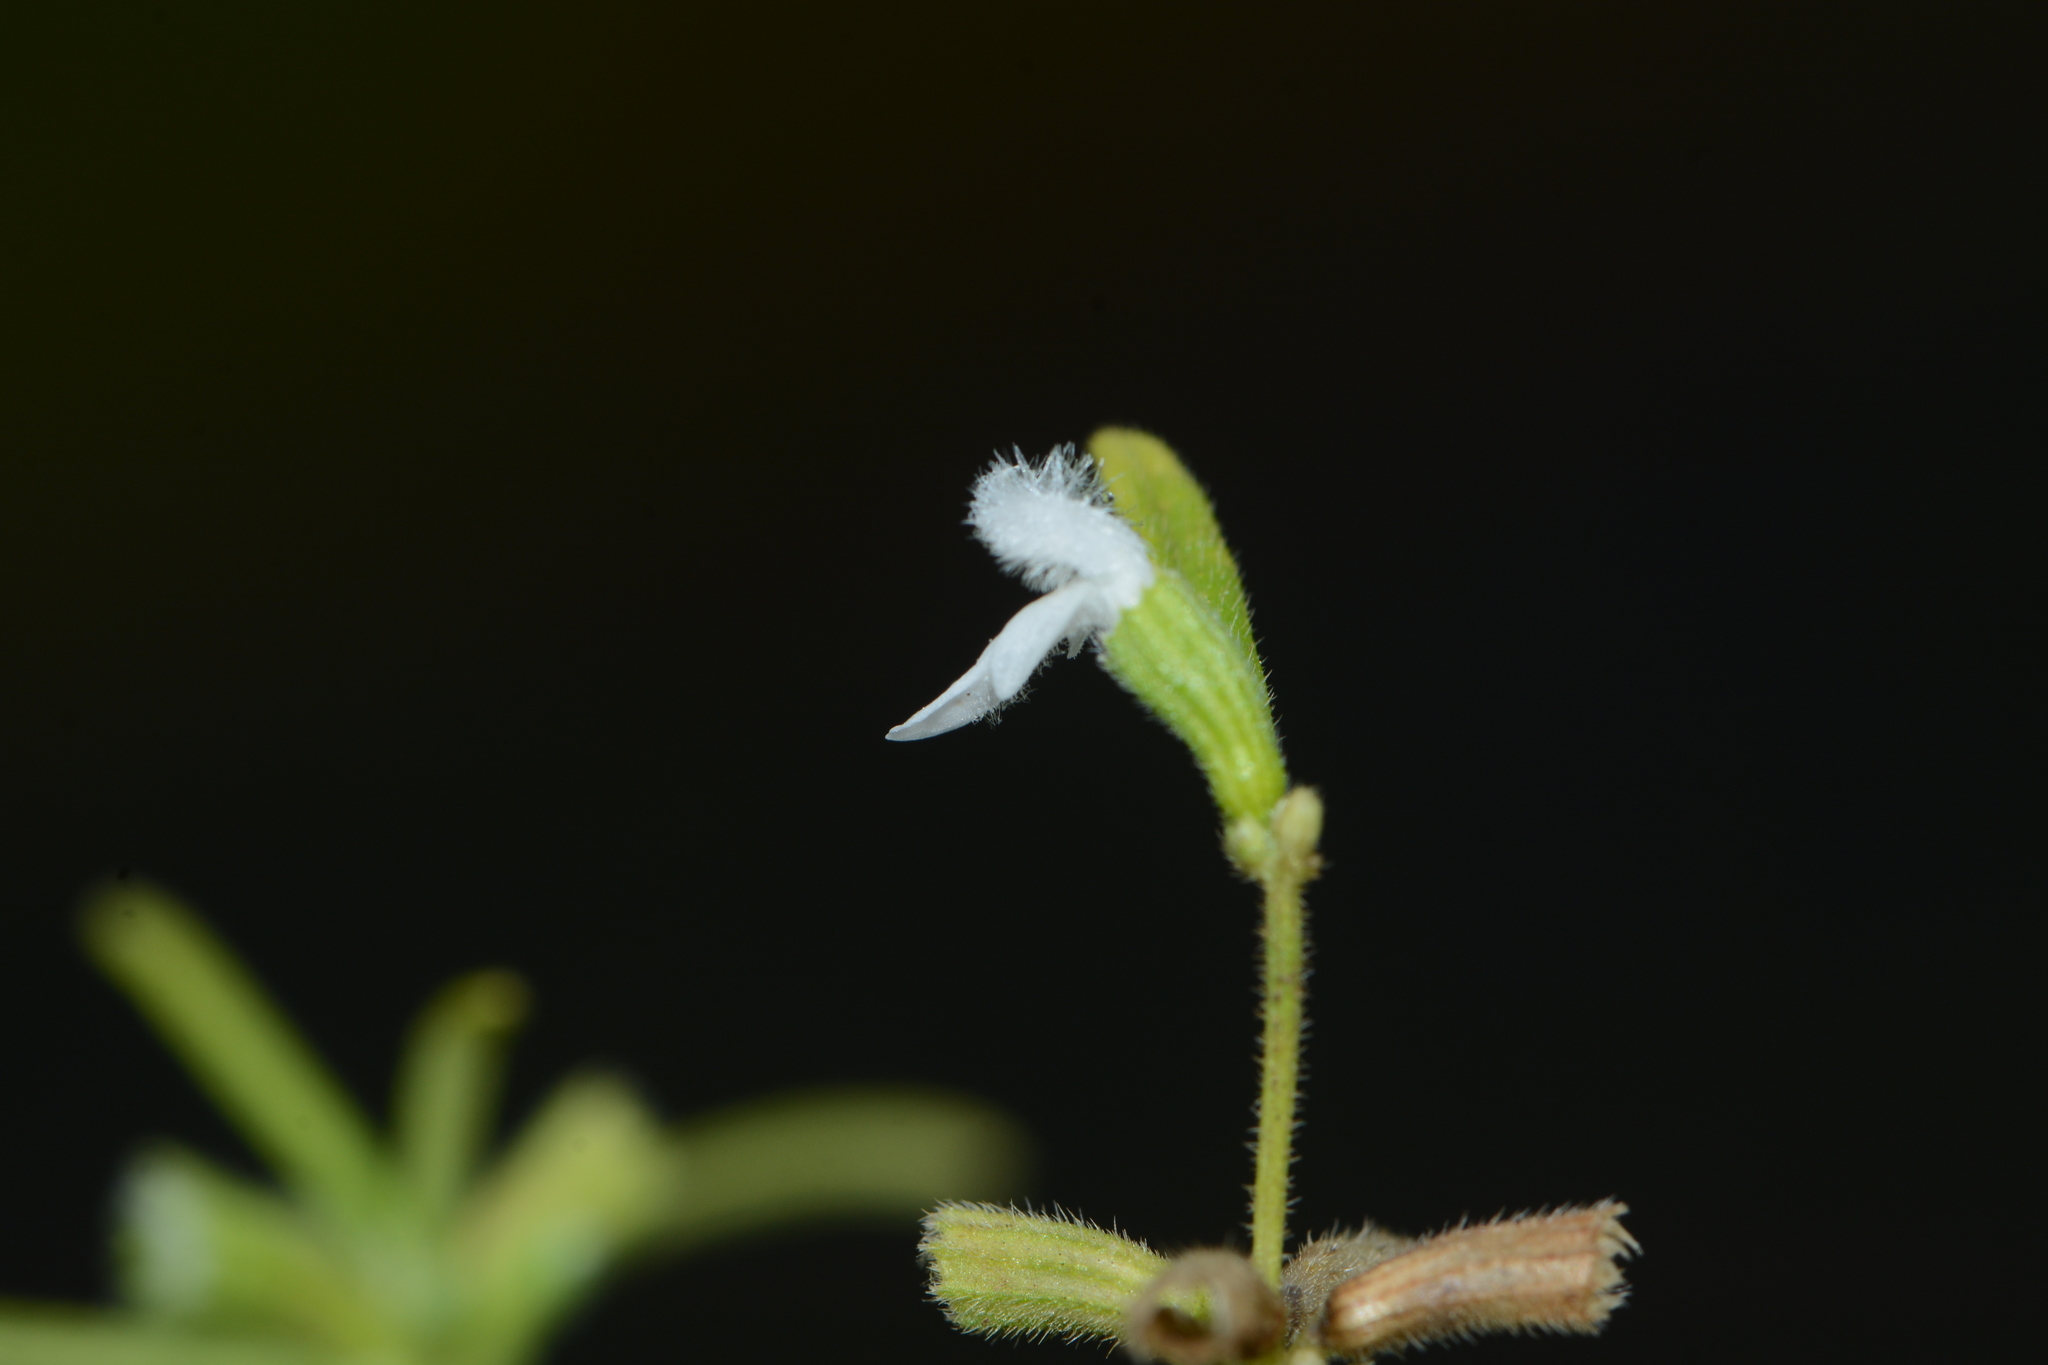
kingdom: Plantae
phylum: Tracheophyta
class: Magnoliopsida
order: Lamiales
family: Lamiaceae
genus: Leucas
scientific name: Leucas longifolia
